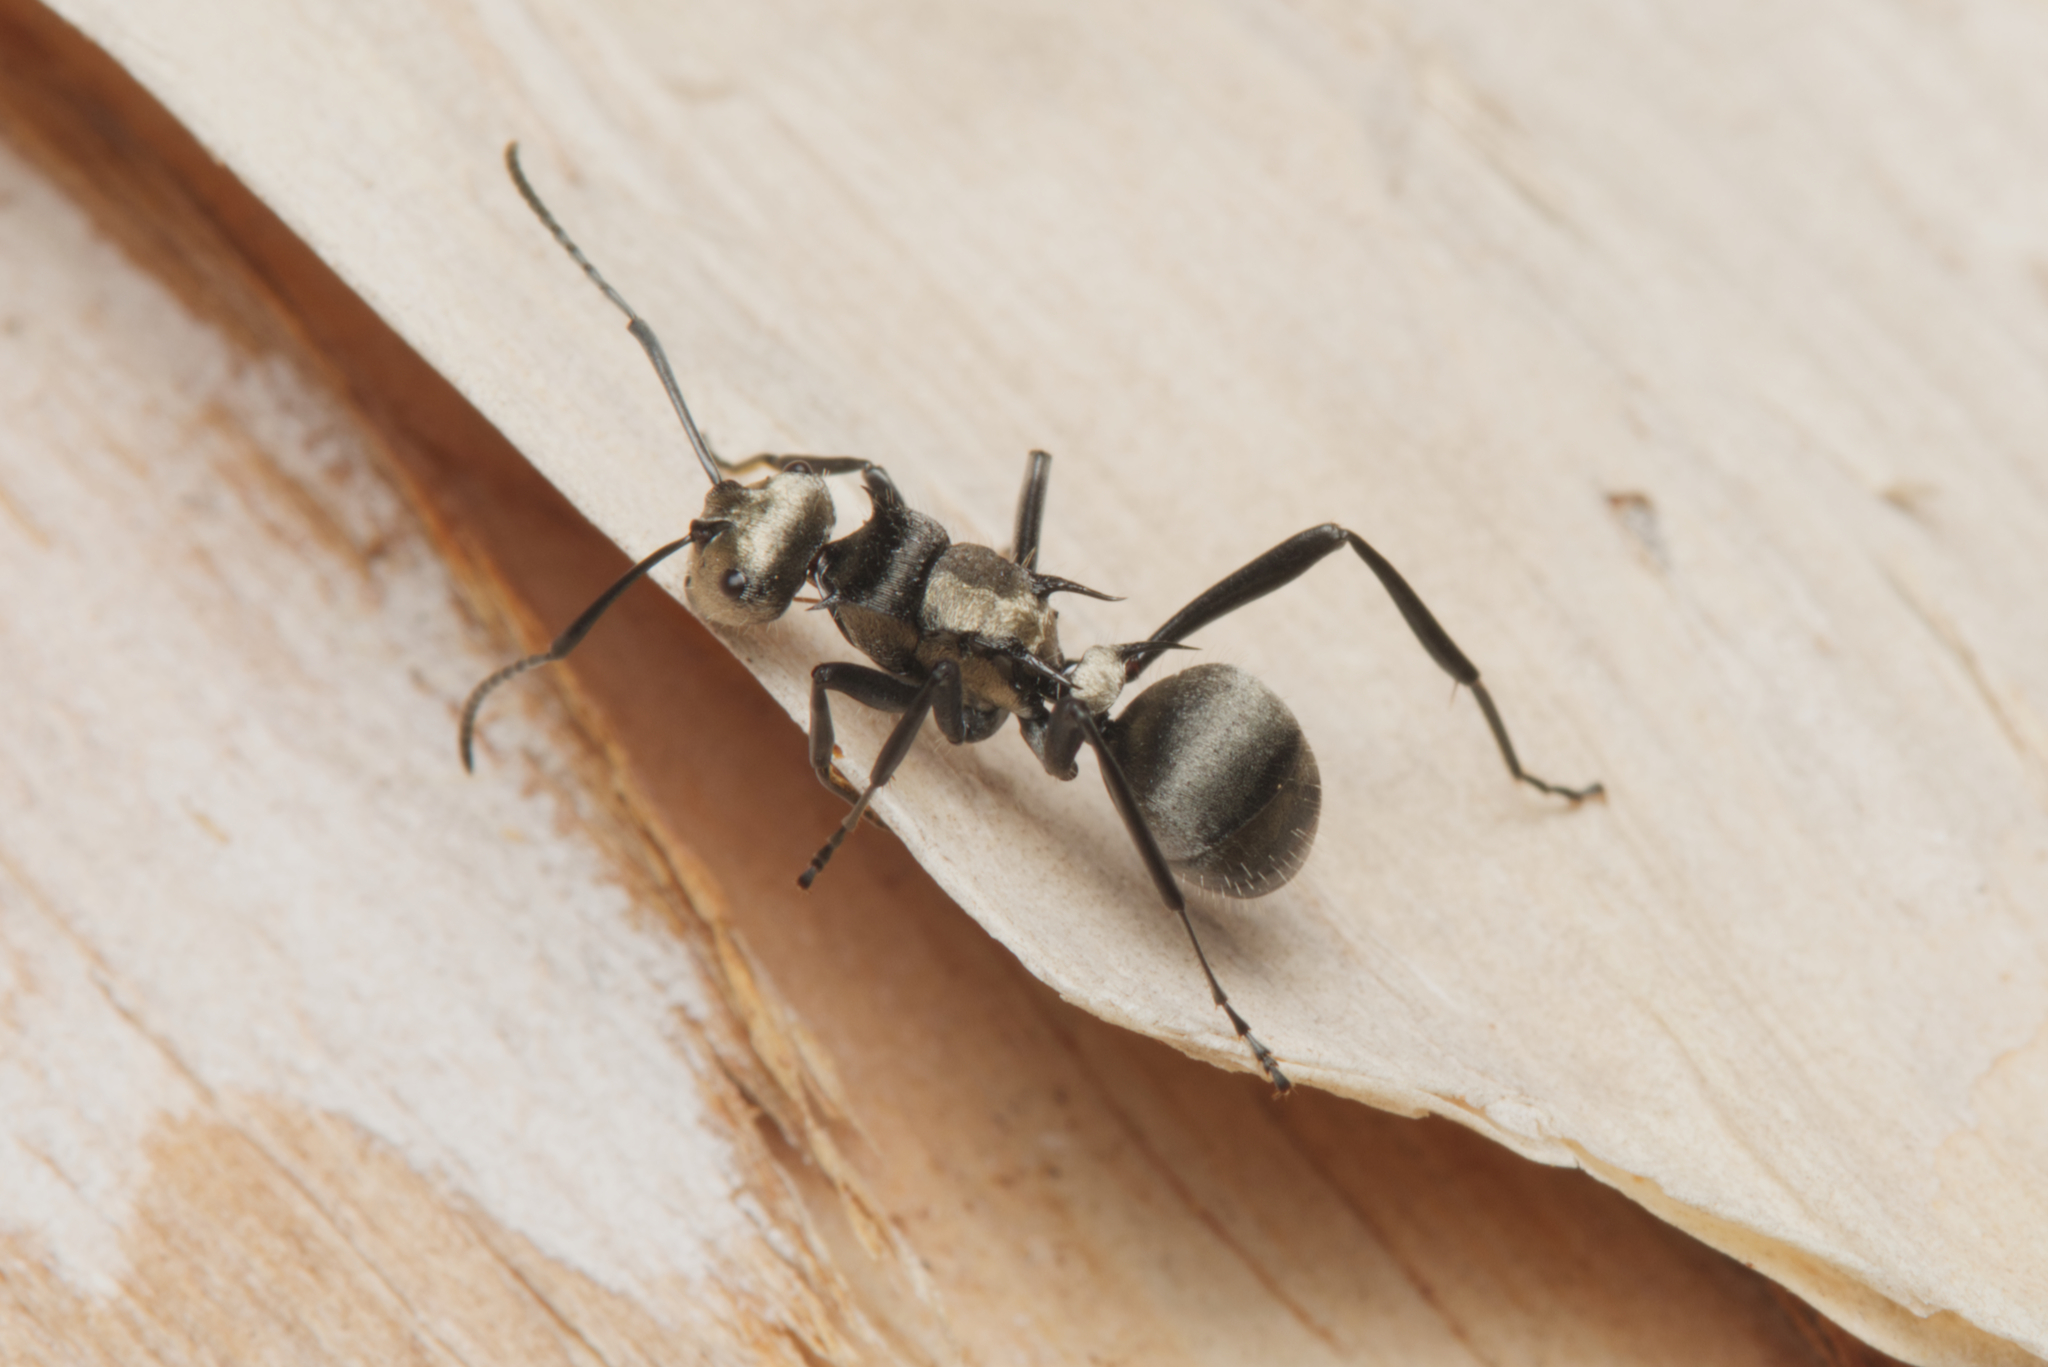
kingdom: Animalia
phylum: Arthropoda
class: Insecta
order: Hymenoptera
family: Formicidae
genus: Polyrhachis
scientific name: Polyrhachis daemeli
